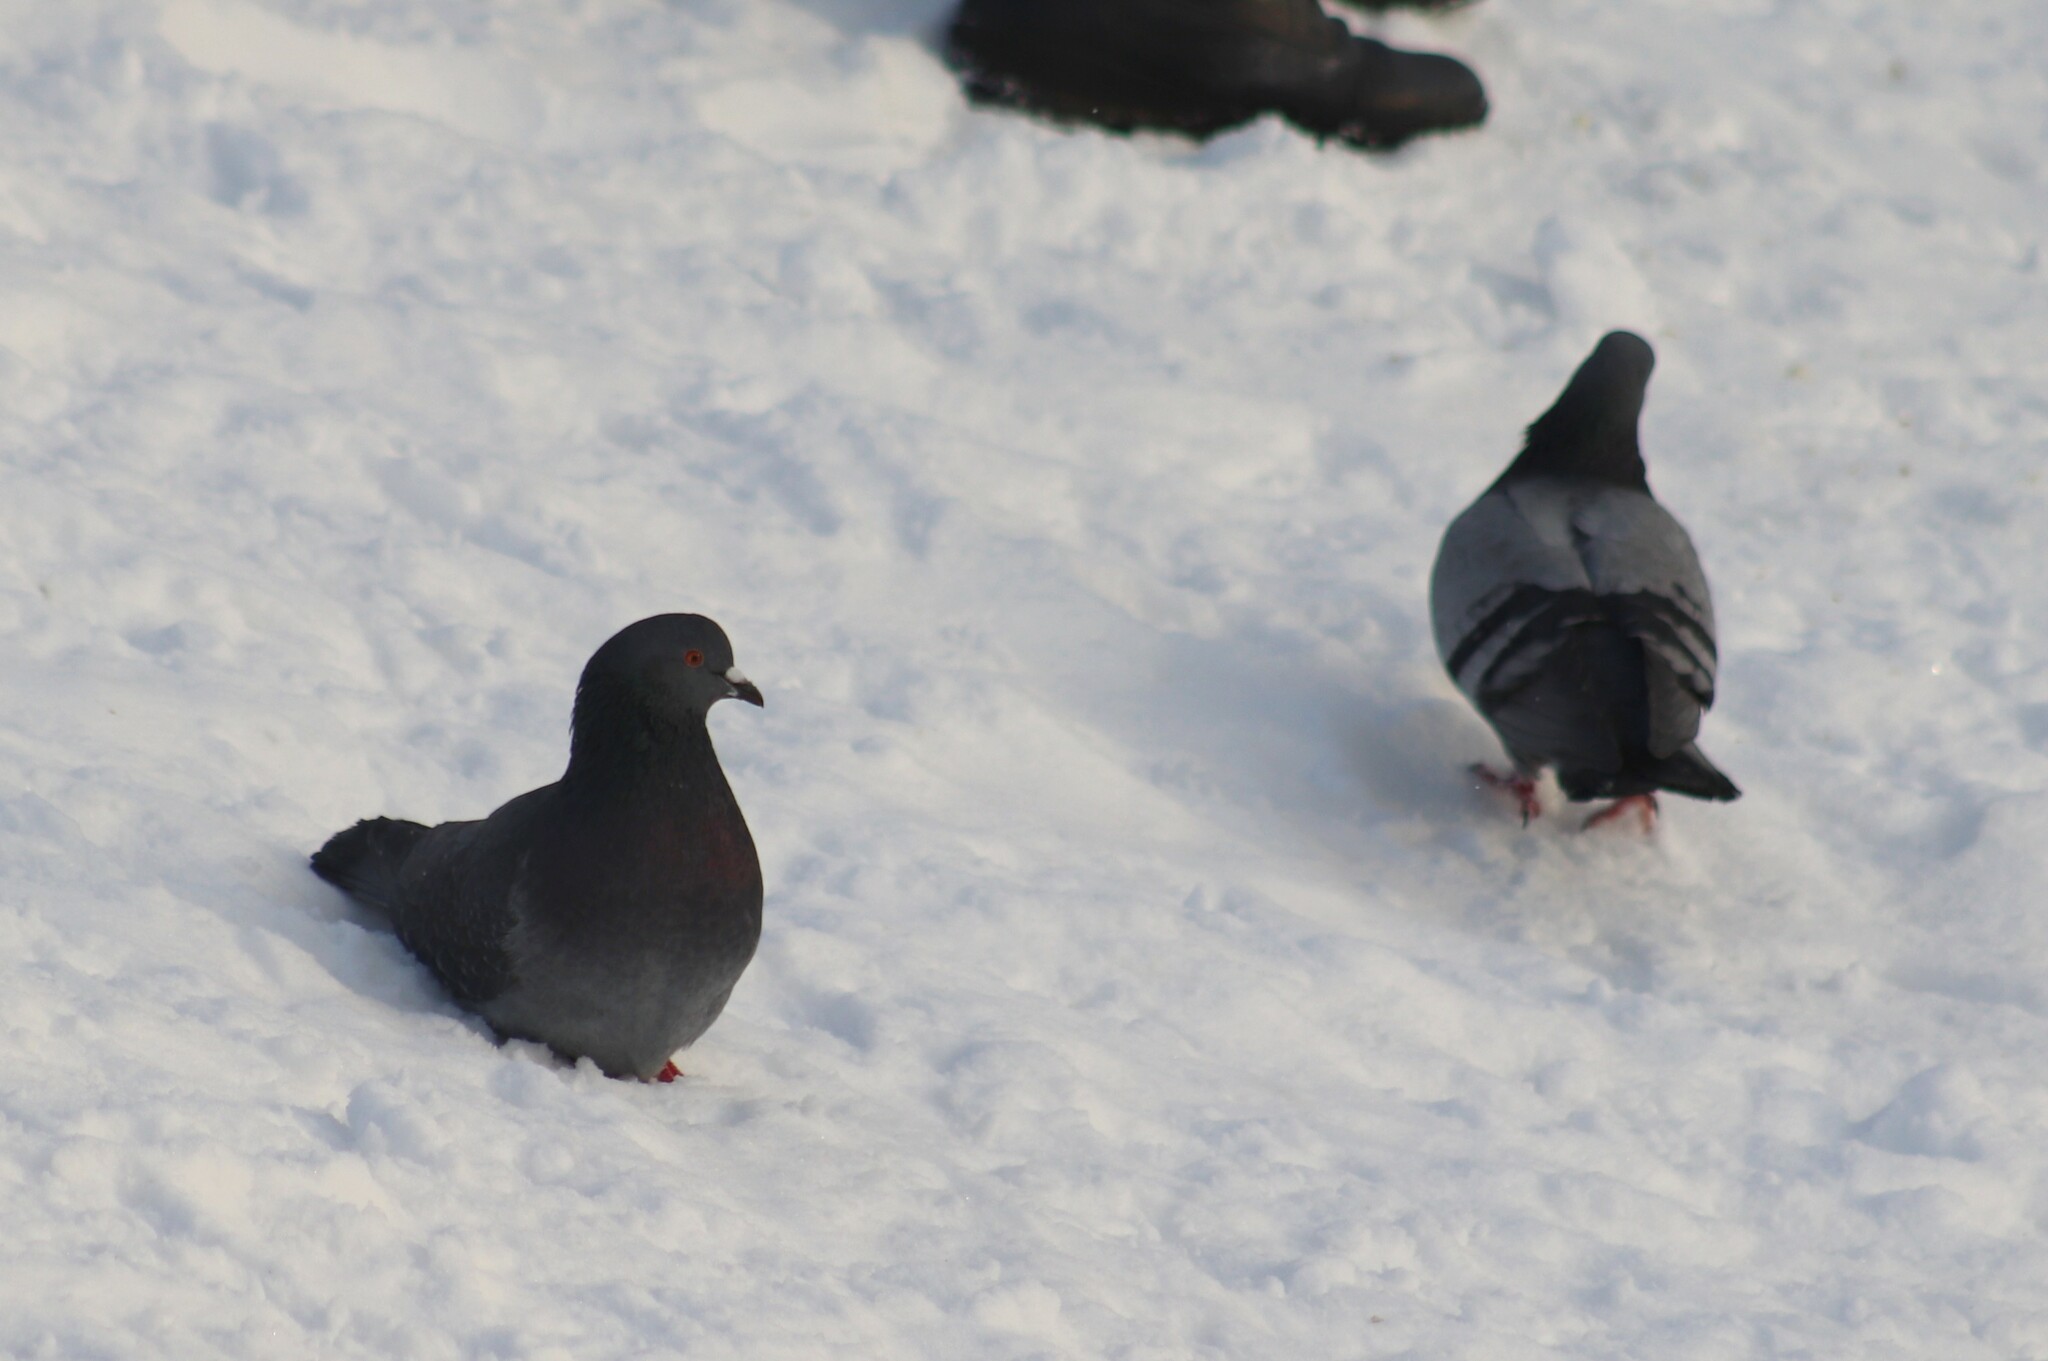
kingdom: Animalia
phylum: Chordata
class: Aves
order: Columbiformes
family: Columbidae
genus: Columba
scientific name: Columba livia
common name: Rock pigeon
